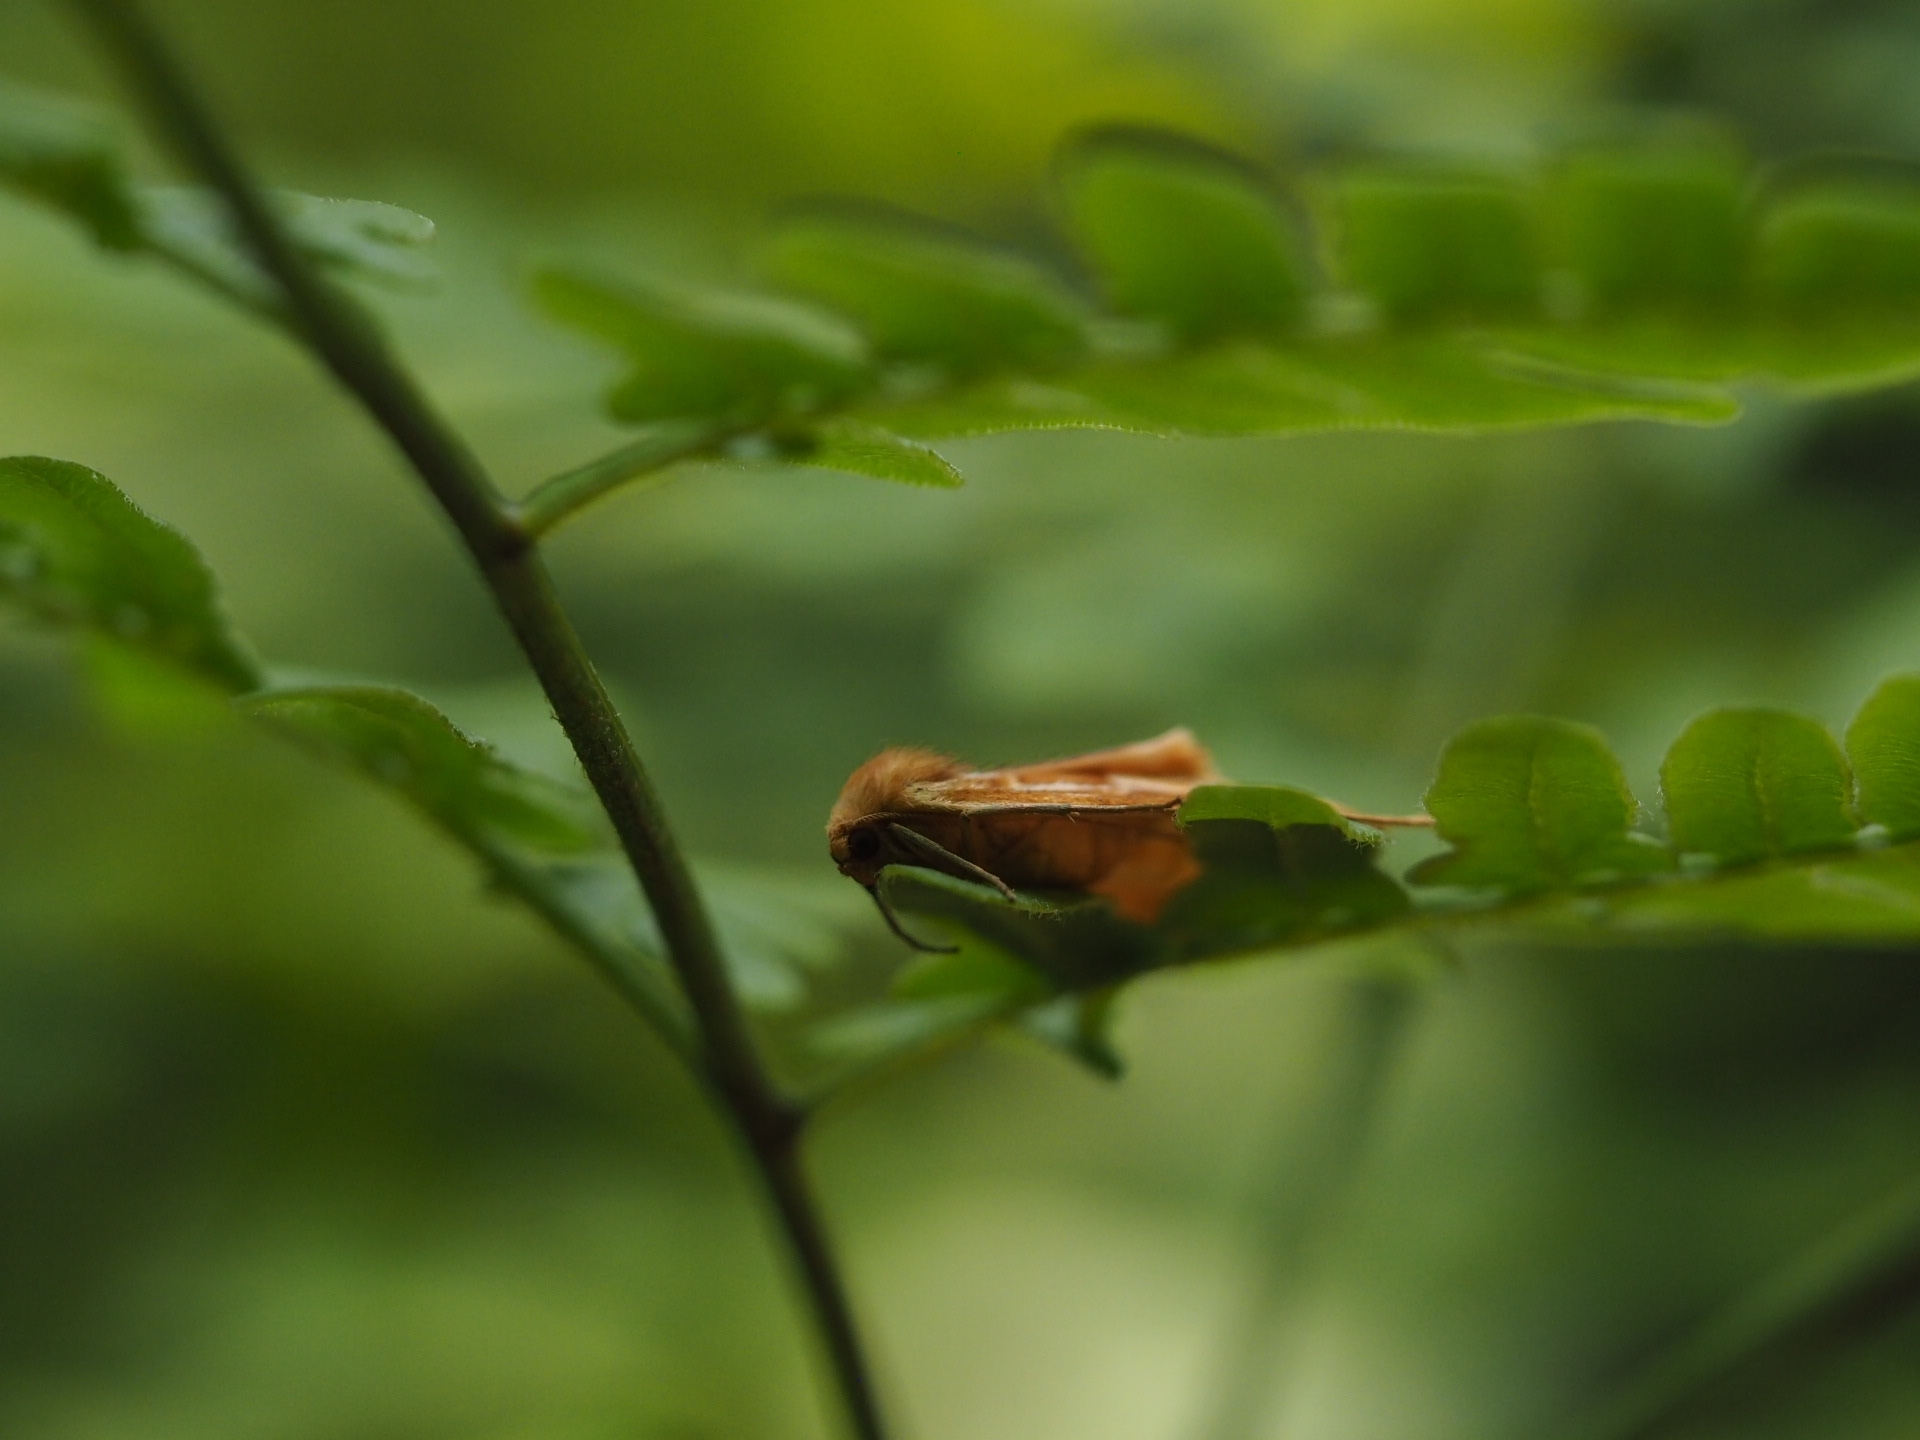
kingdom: Animalia
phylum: Arthropoda
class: Insecta
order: Lepidoptera
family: Geometridae
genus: Caripeta
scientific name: Caripeta piniata
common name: Northern pine looper moth
